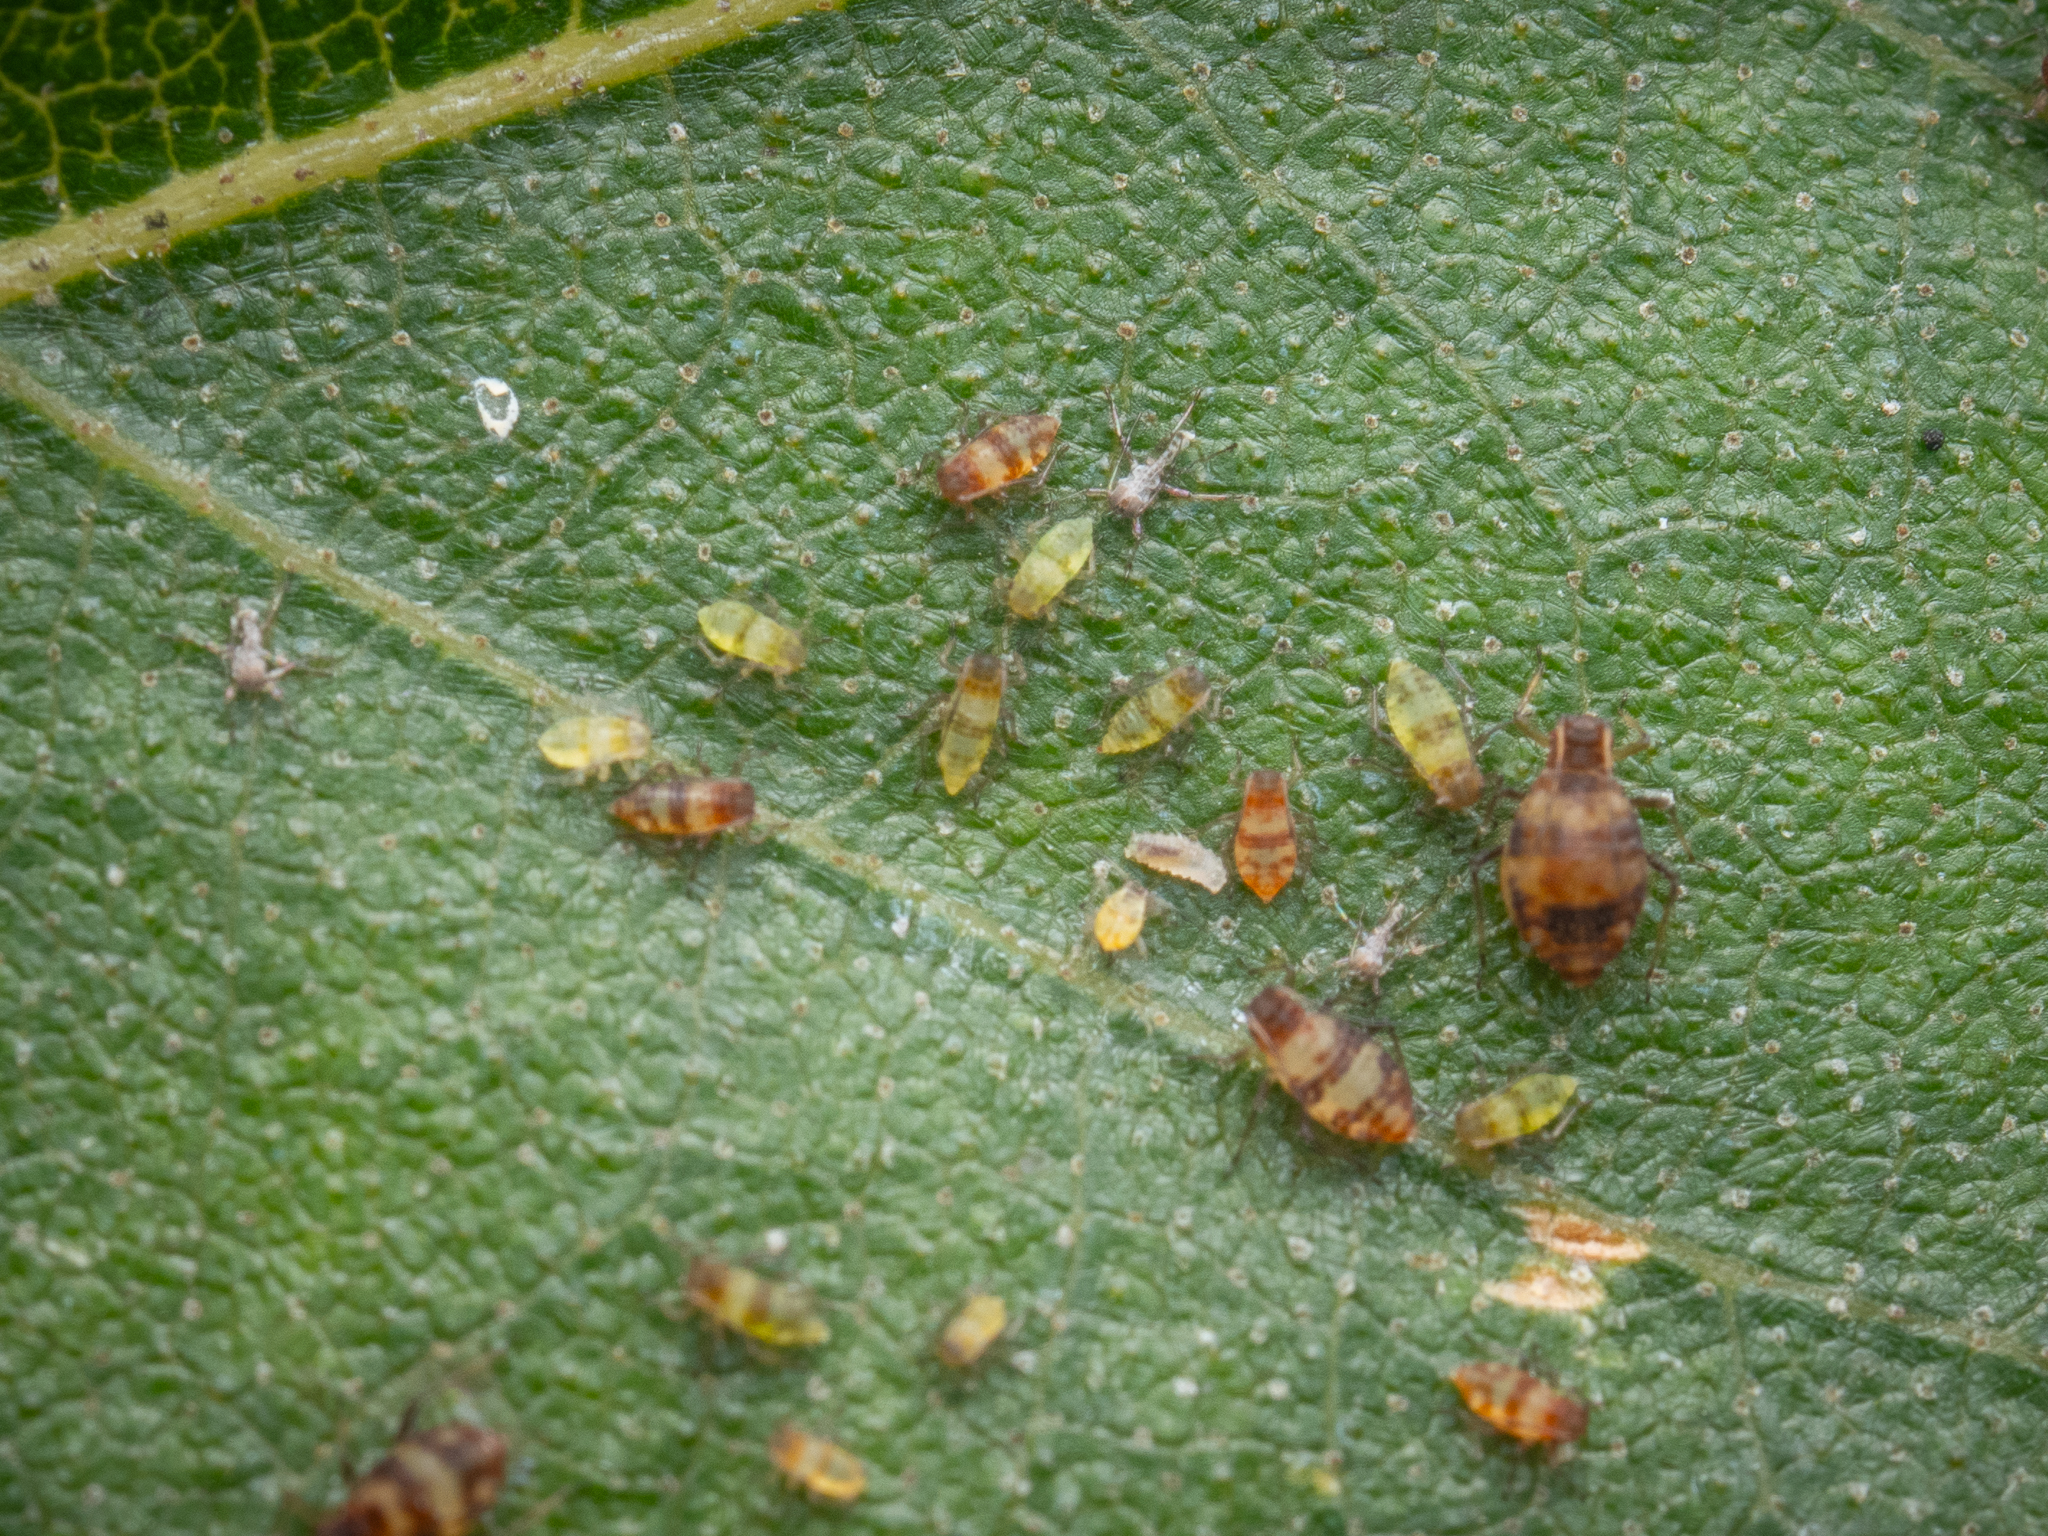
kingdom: Animalia
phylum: Arthropoda
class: Insecta
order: Hemiptera
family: Aphididae
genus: Callipterinella
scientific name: Callipterinella tuberculata
